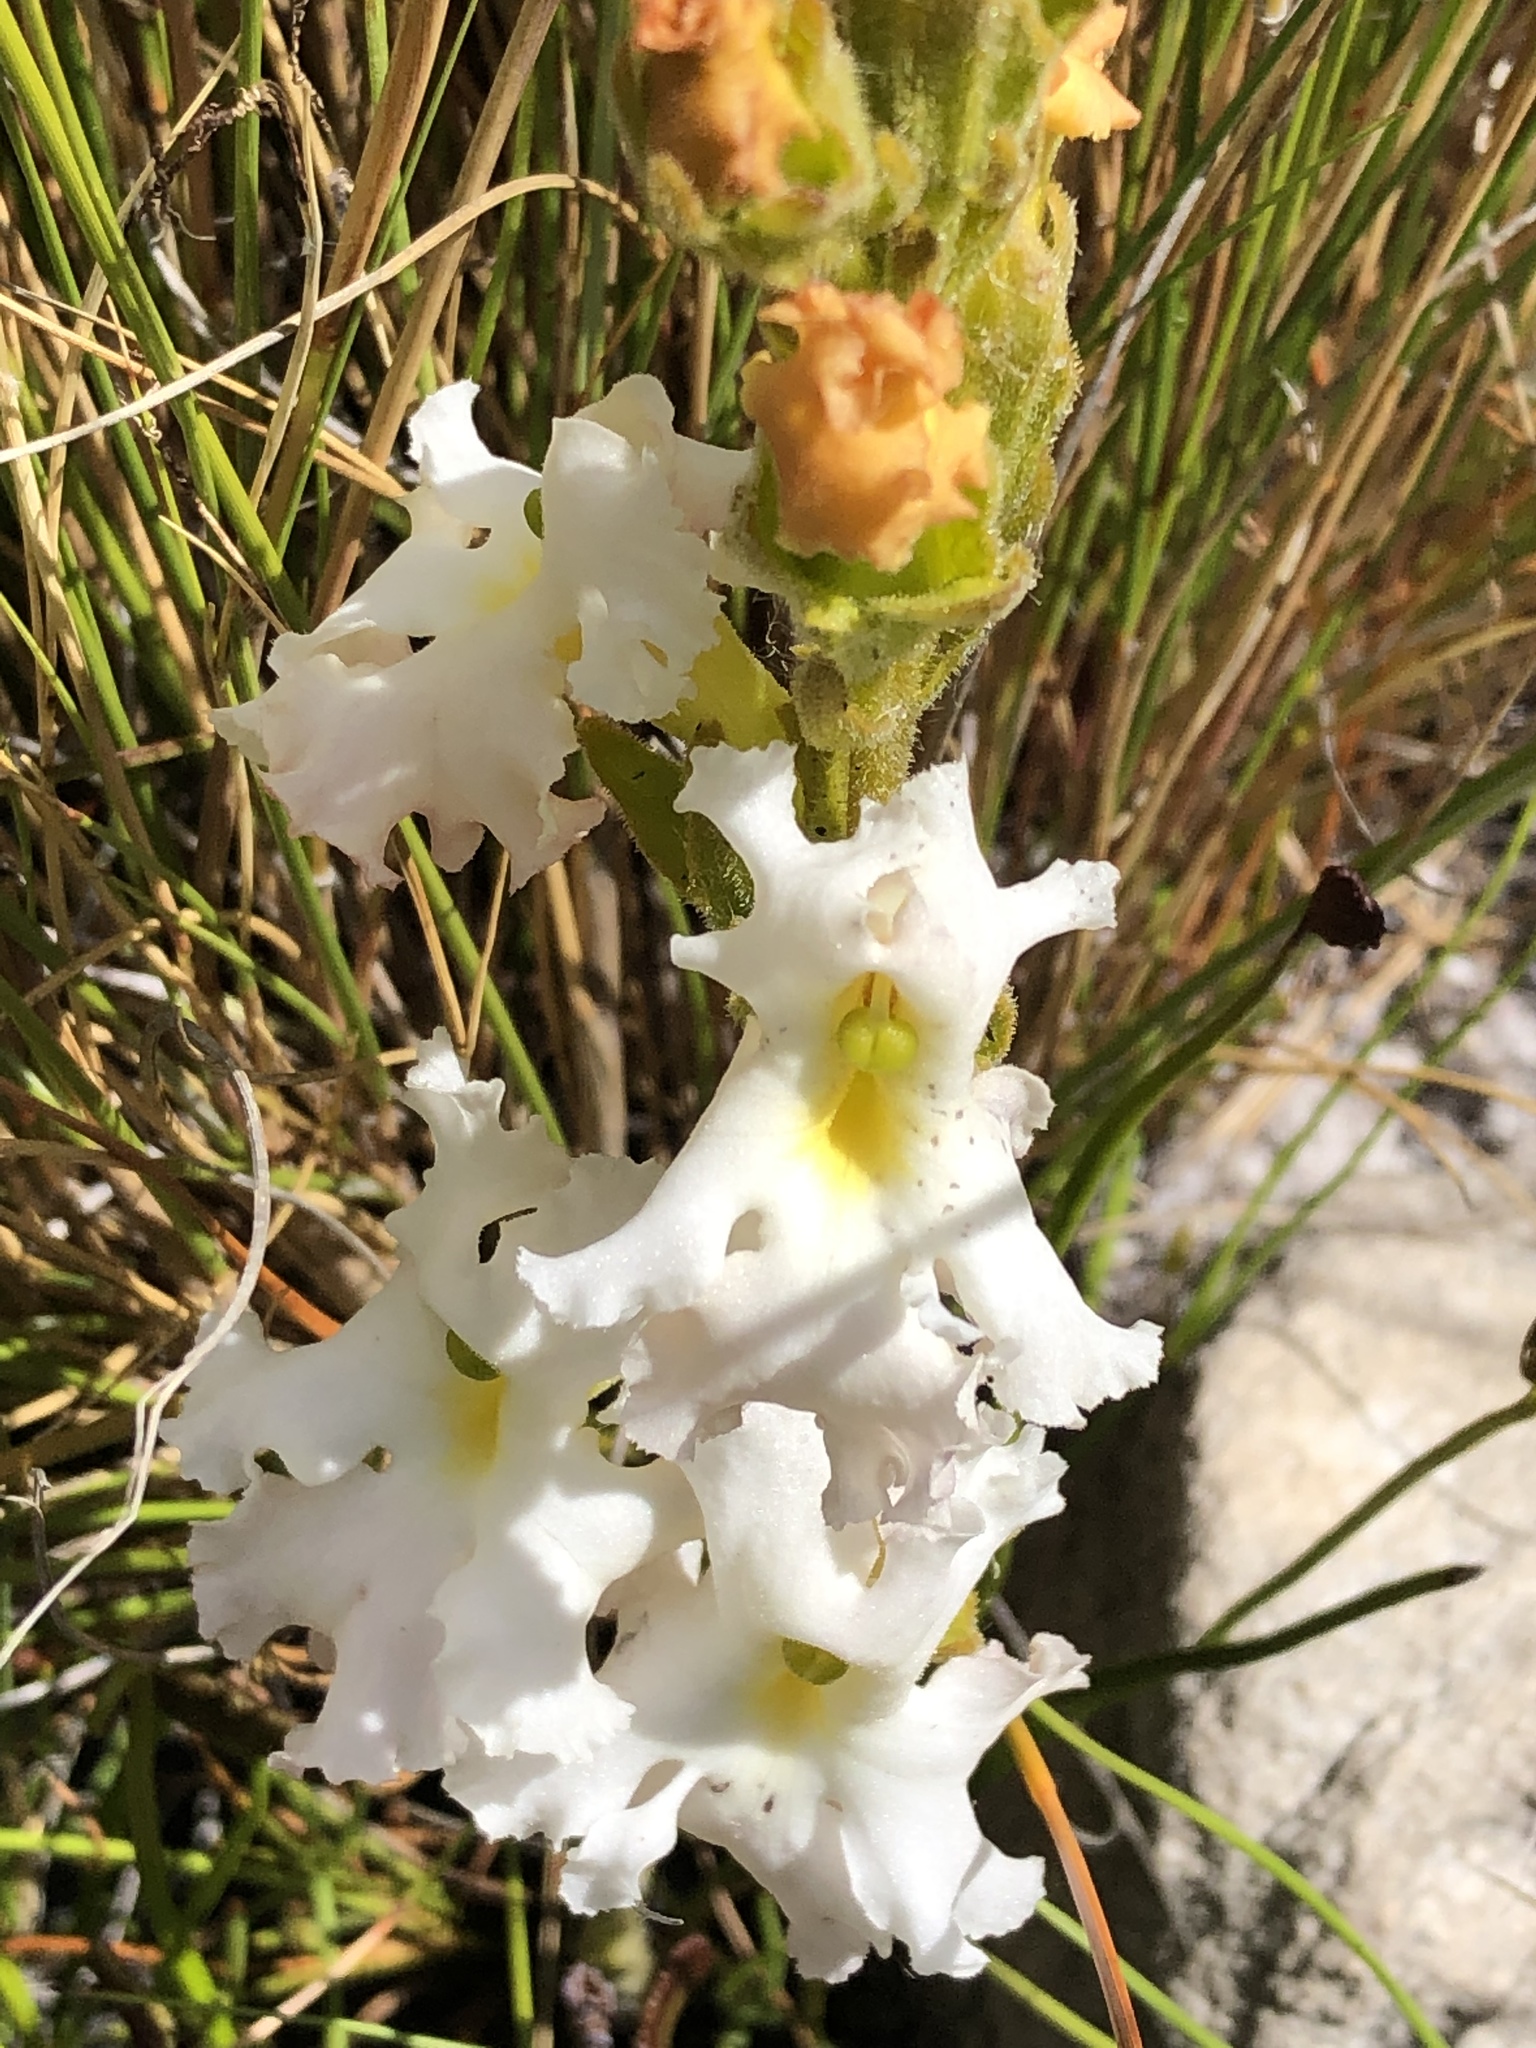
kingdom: Plantae
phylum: Tracheophyta
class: Magnoliopsida
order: Lamiales
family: Orobanchaceae
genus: Harveya
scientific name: Harveya capensis
